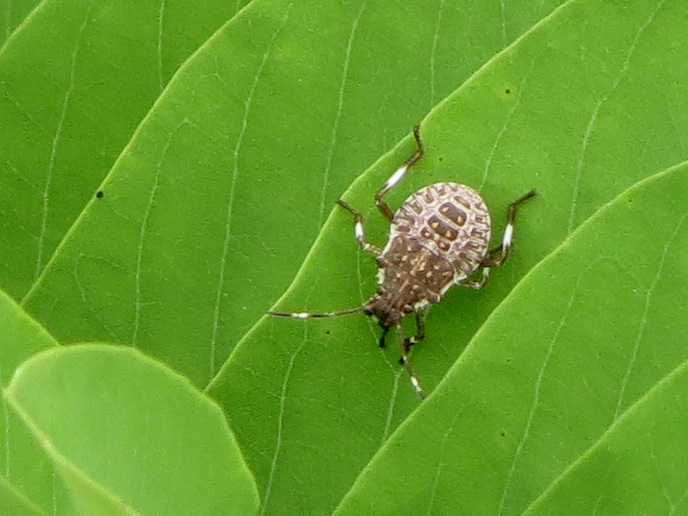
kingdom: Animalia
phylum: Arthropoda
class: Insecta
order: Hemiptera
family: Pentatomidae
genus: Halyomorpha
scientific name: Halyomorpha halys
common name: Brown marmorated stink bug
